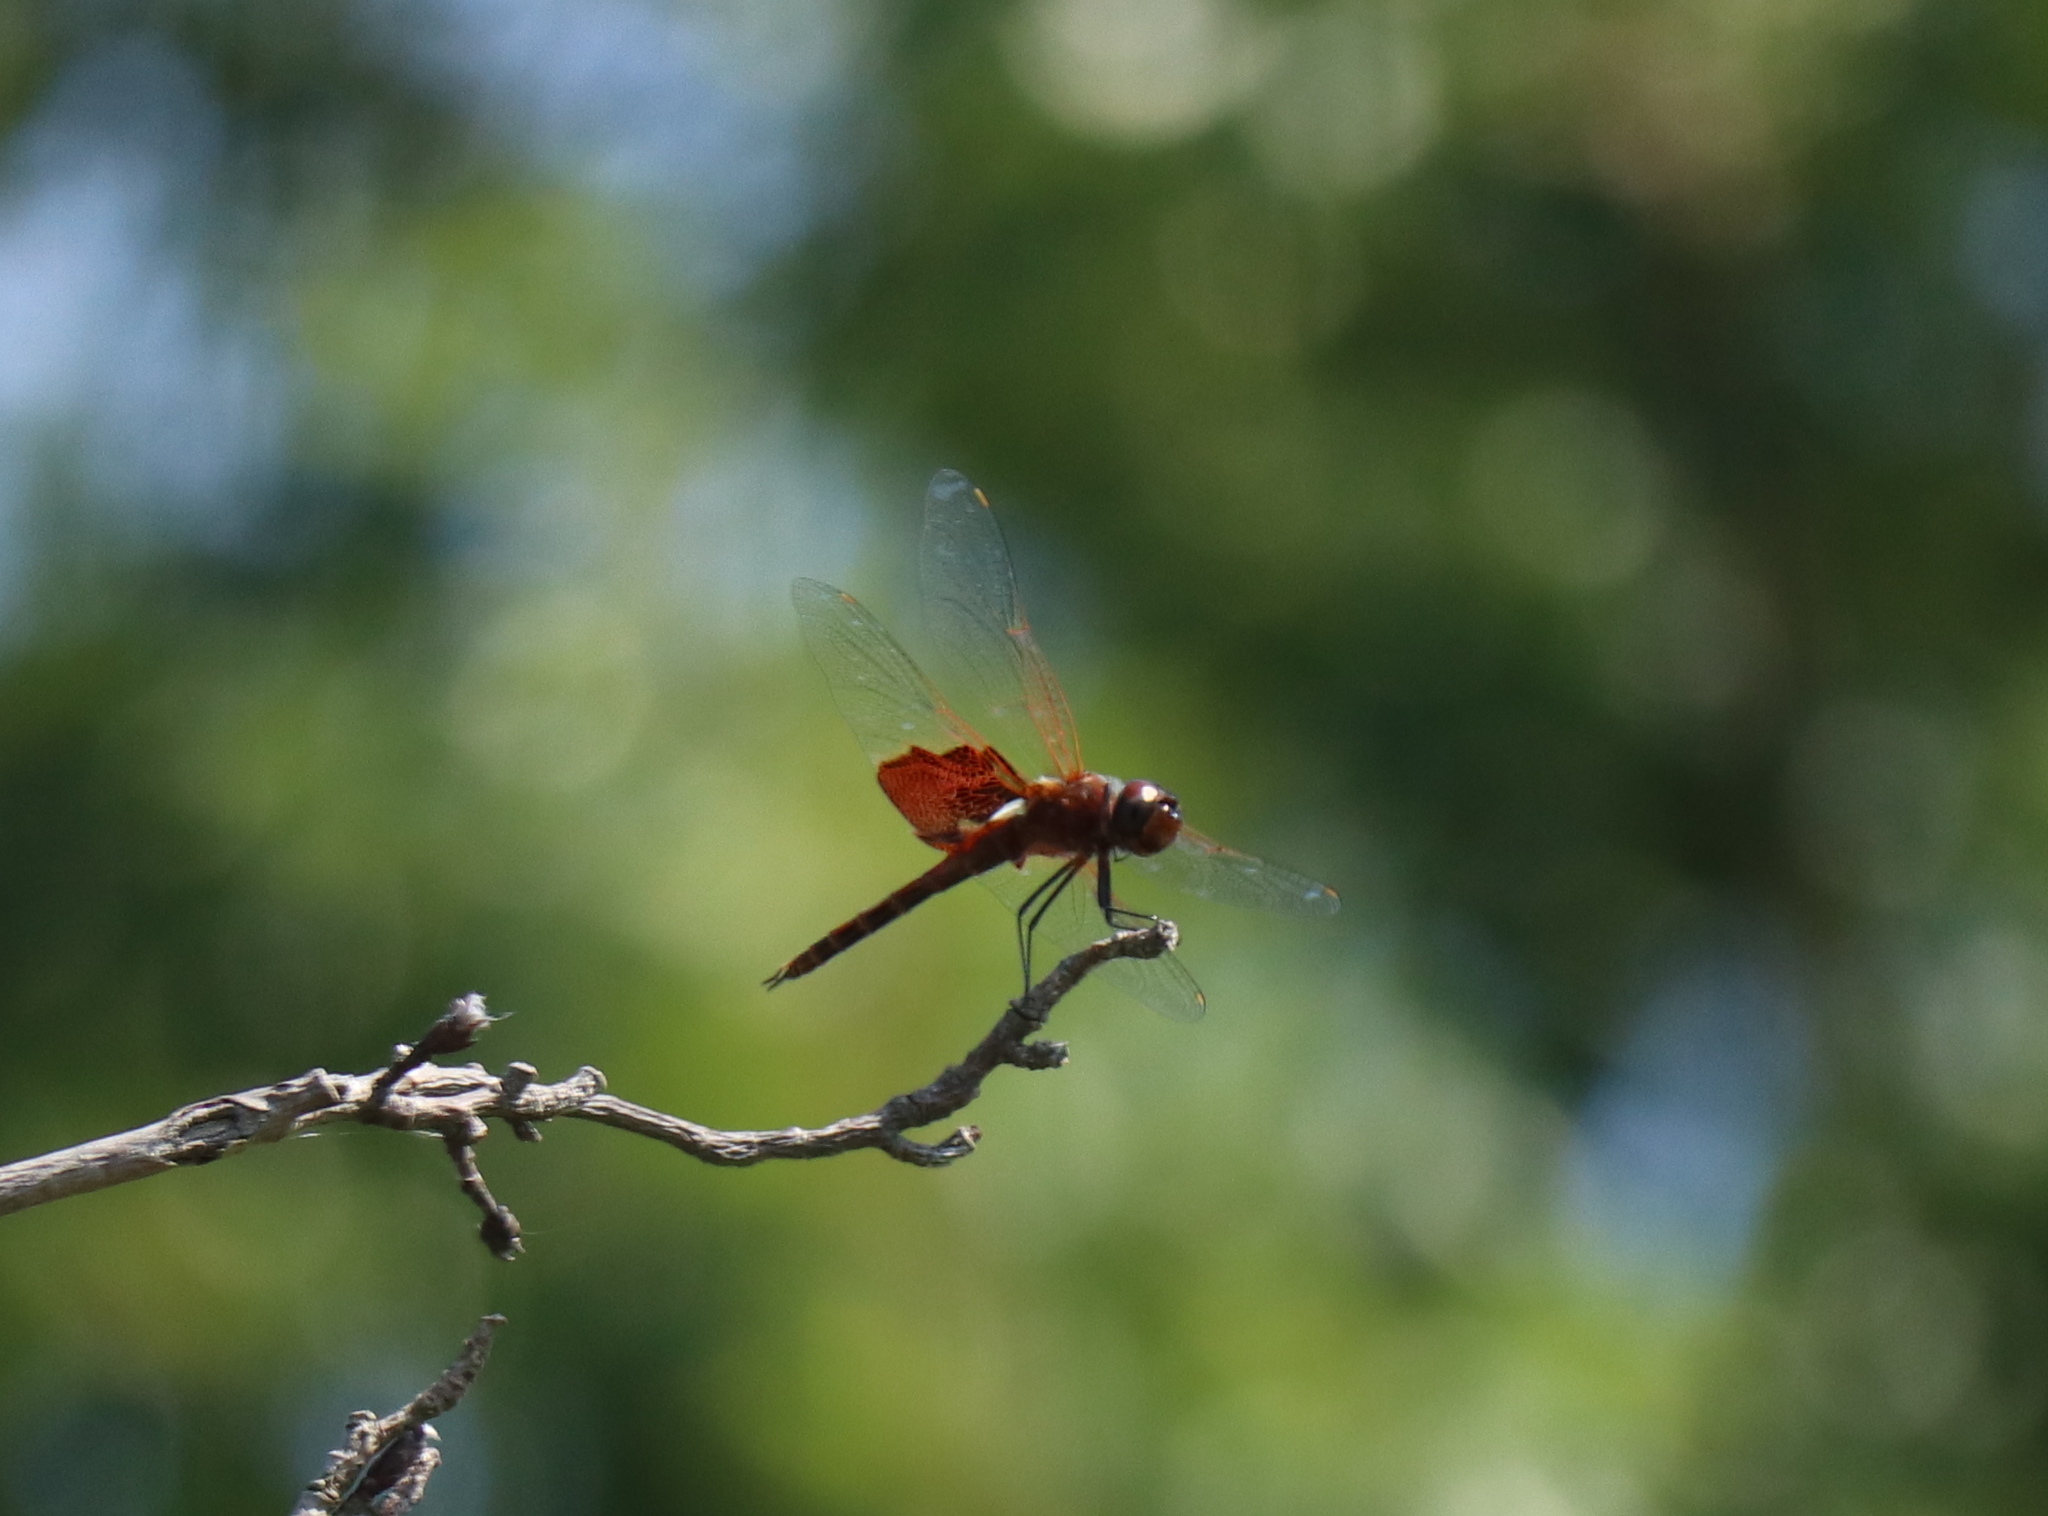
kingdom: Animalia
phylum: Arthropoda
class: Insecta
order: Odonata
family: Libellulidae
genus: Tramea
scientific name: Tramea carolina
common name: Carolina saddlebags
